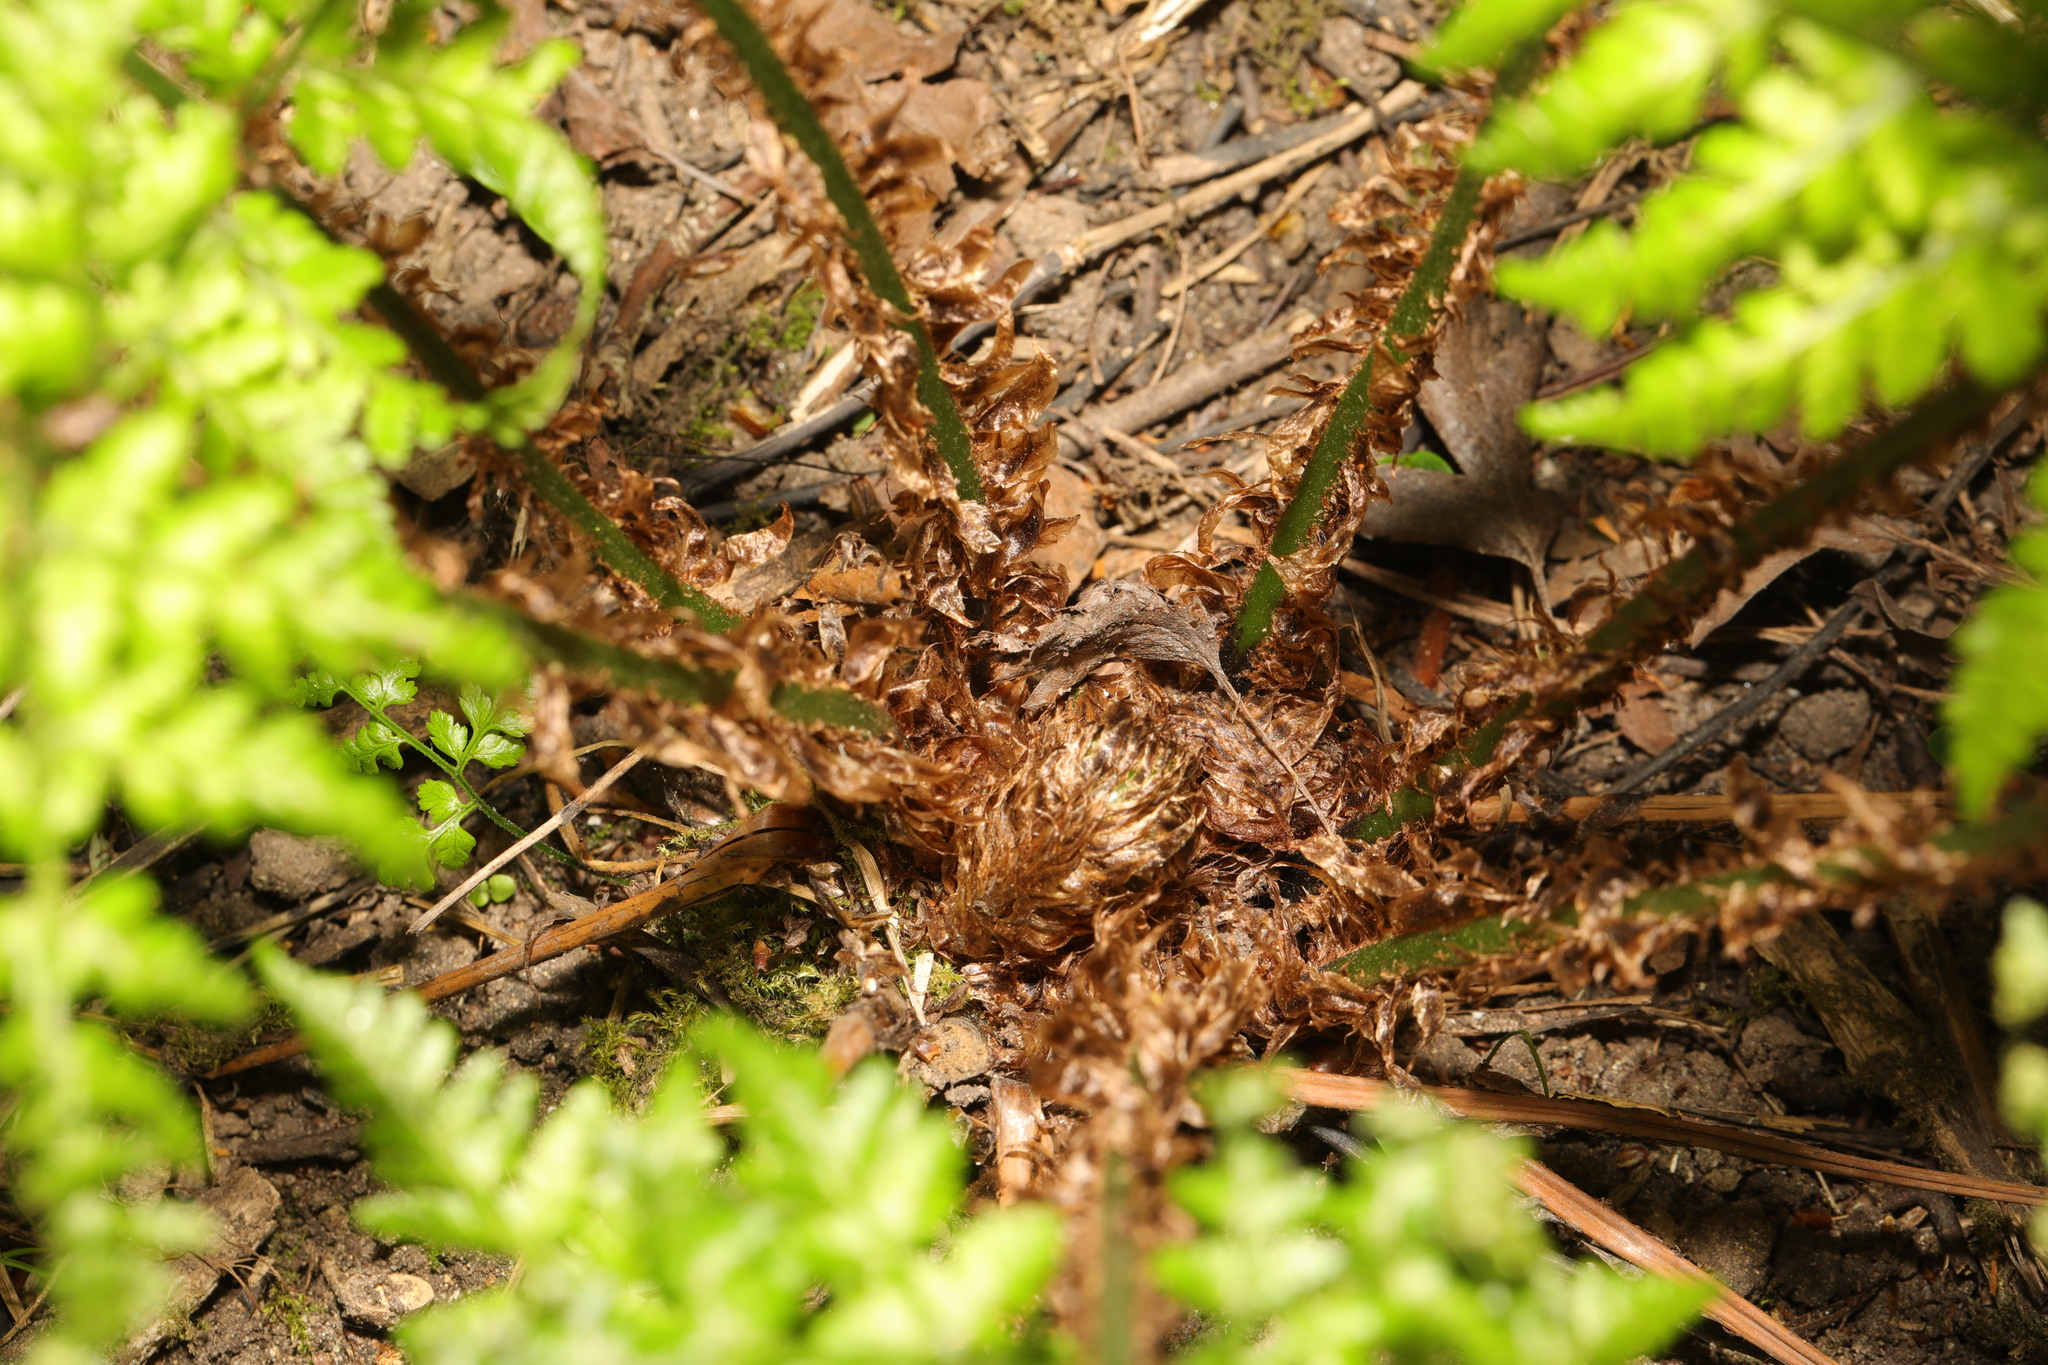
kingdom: Plantae
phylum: Tracheophyta
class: Polypodiopsida
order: Polypodiales
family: Dryopteridaceae
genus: Dryopteris
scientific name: Dryopteris dilatata
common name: Broad buckler-fern
